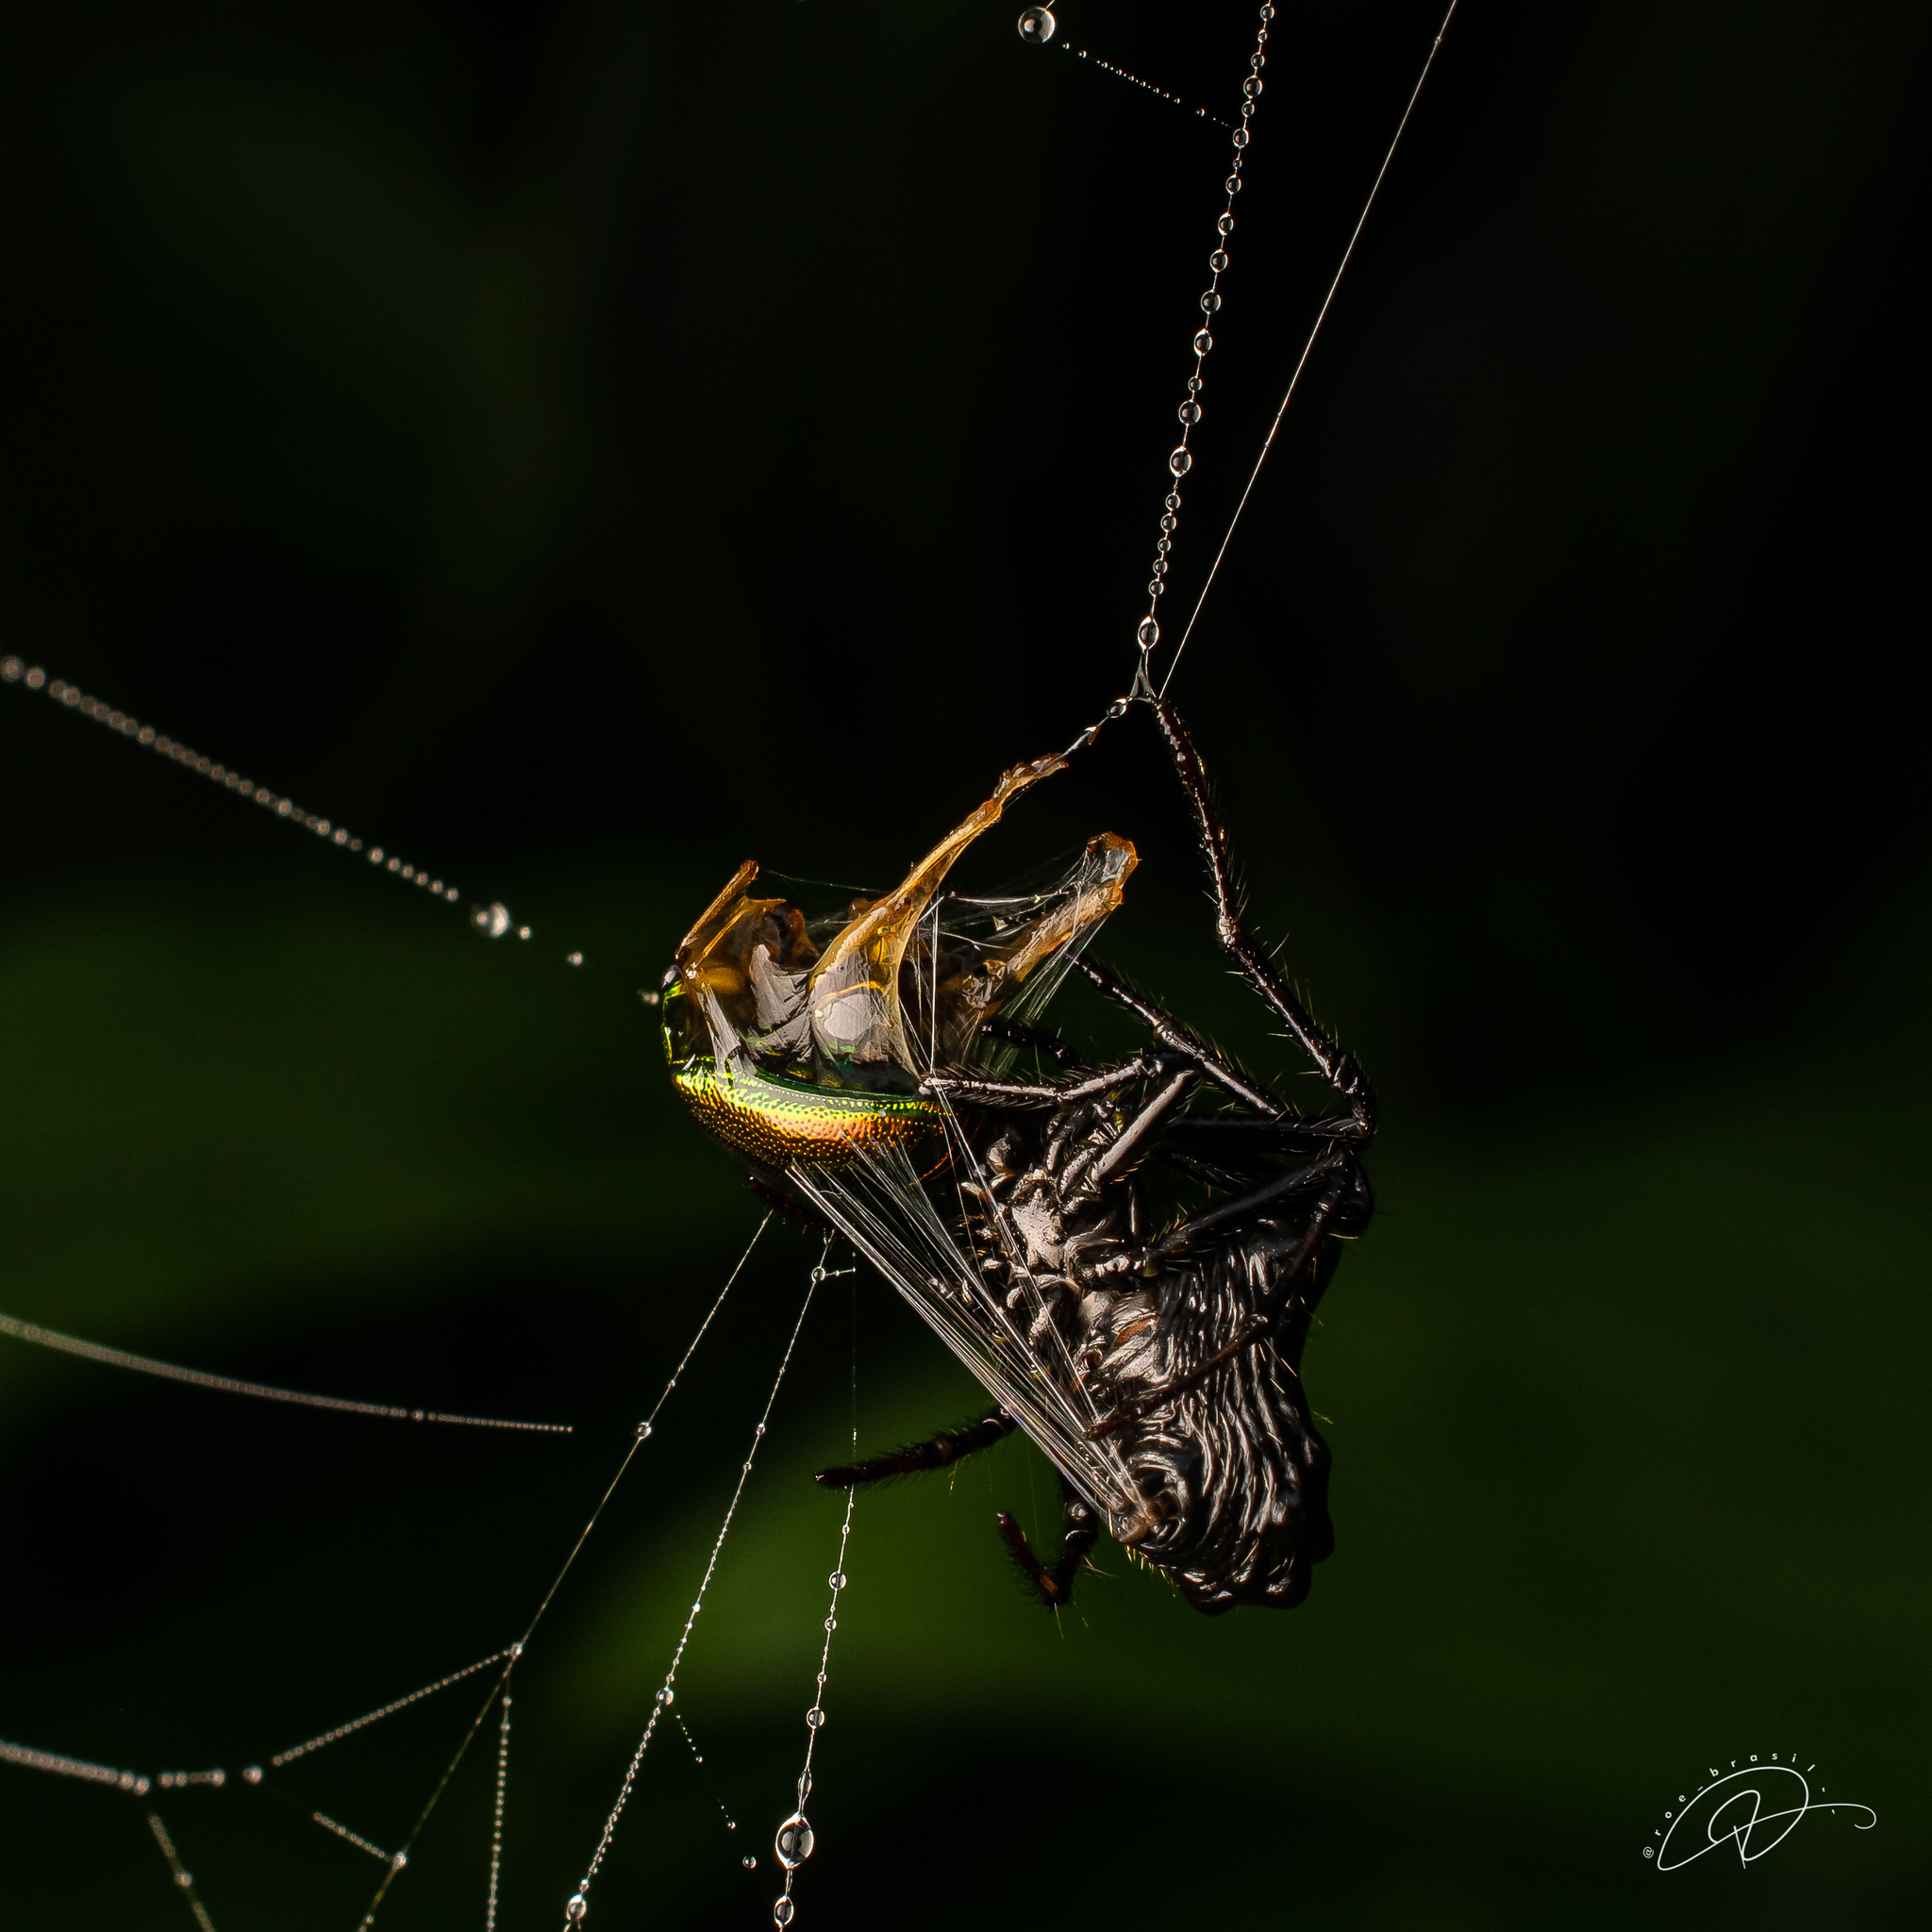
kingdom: Animalia
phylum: Arthropoda
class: Arachnida
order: Araneae
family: Araneidae
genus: Verrucosa
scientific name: Verrucosa scapofracta
